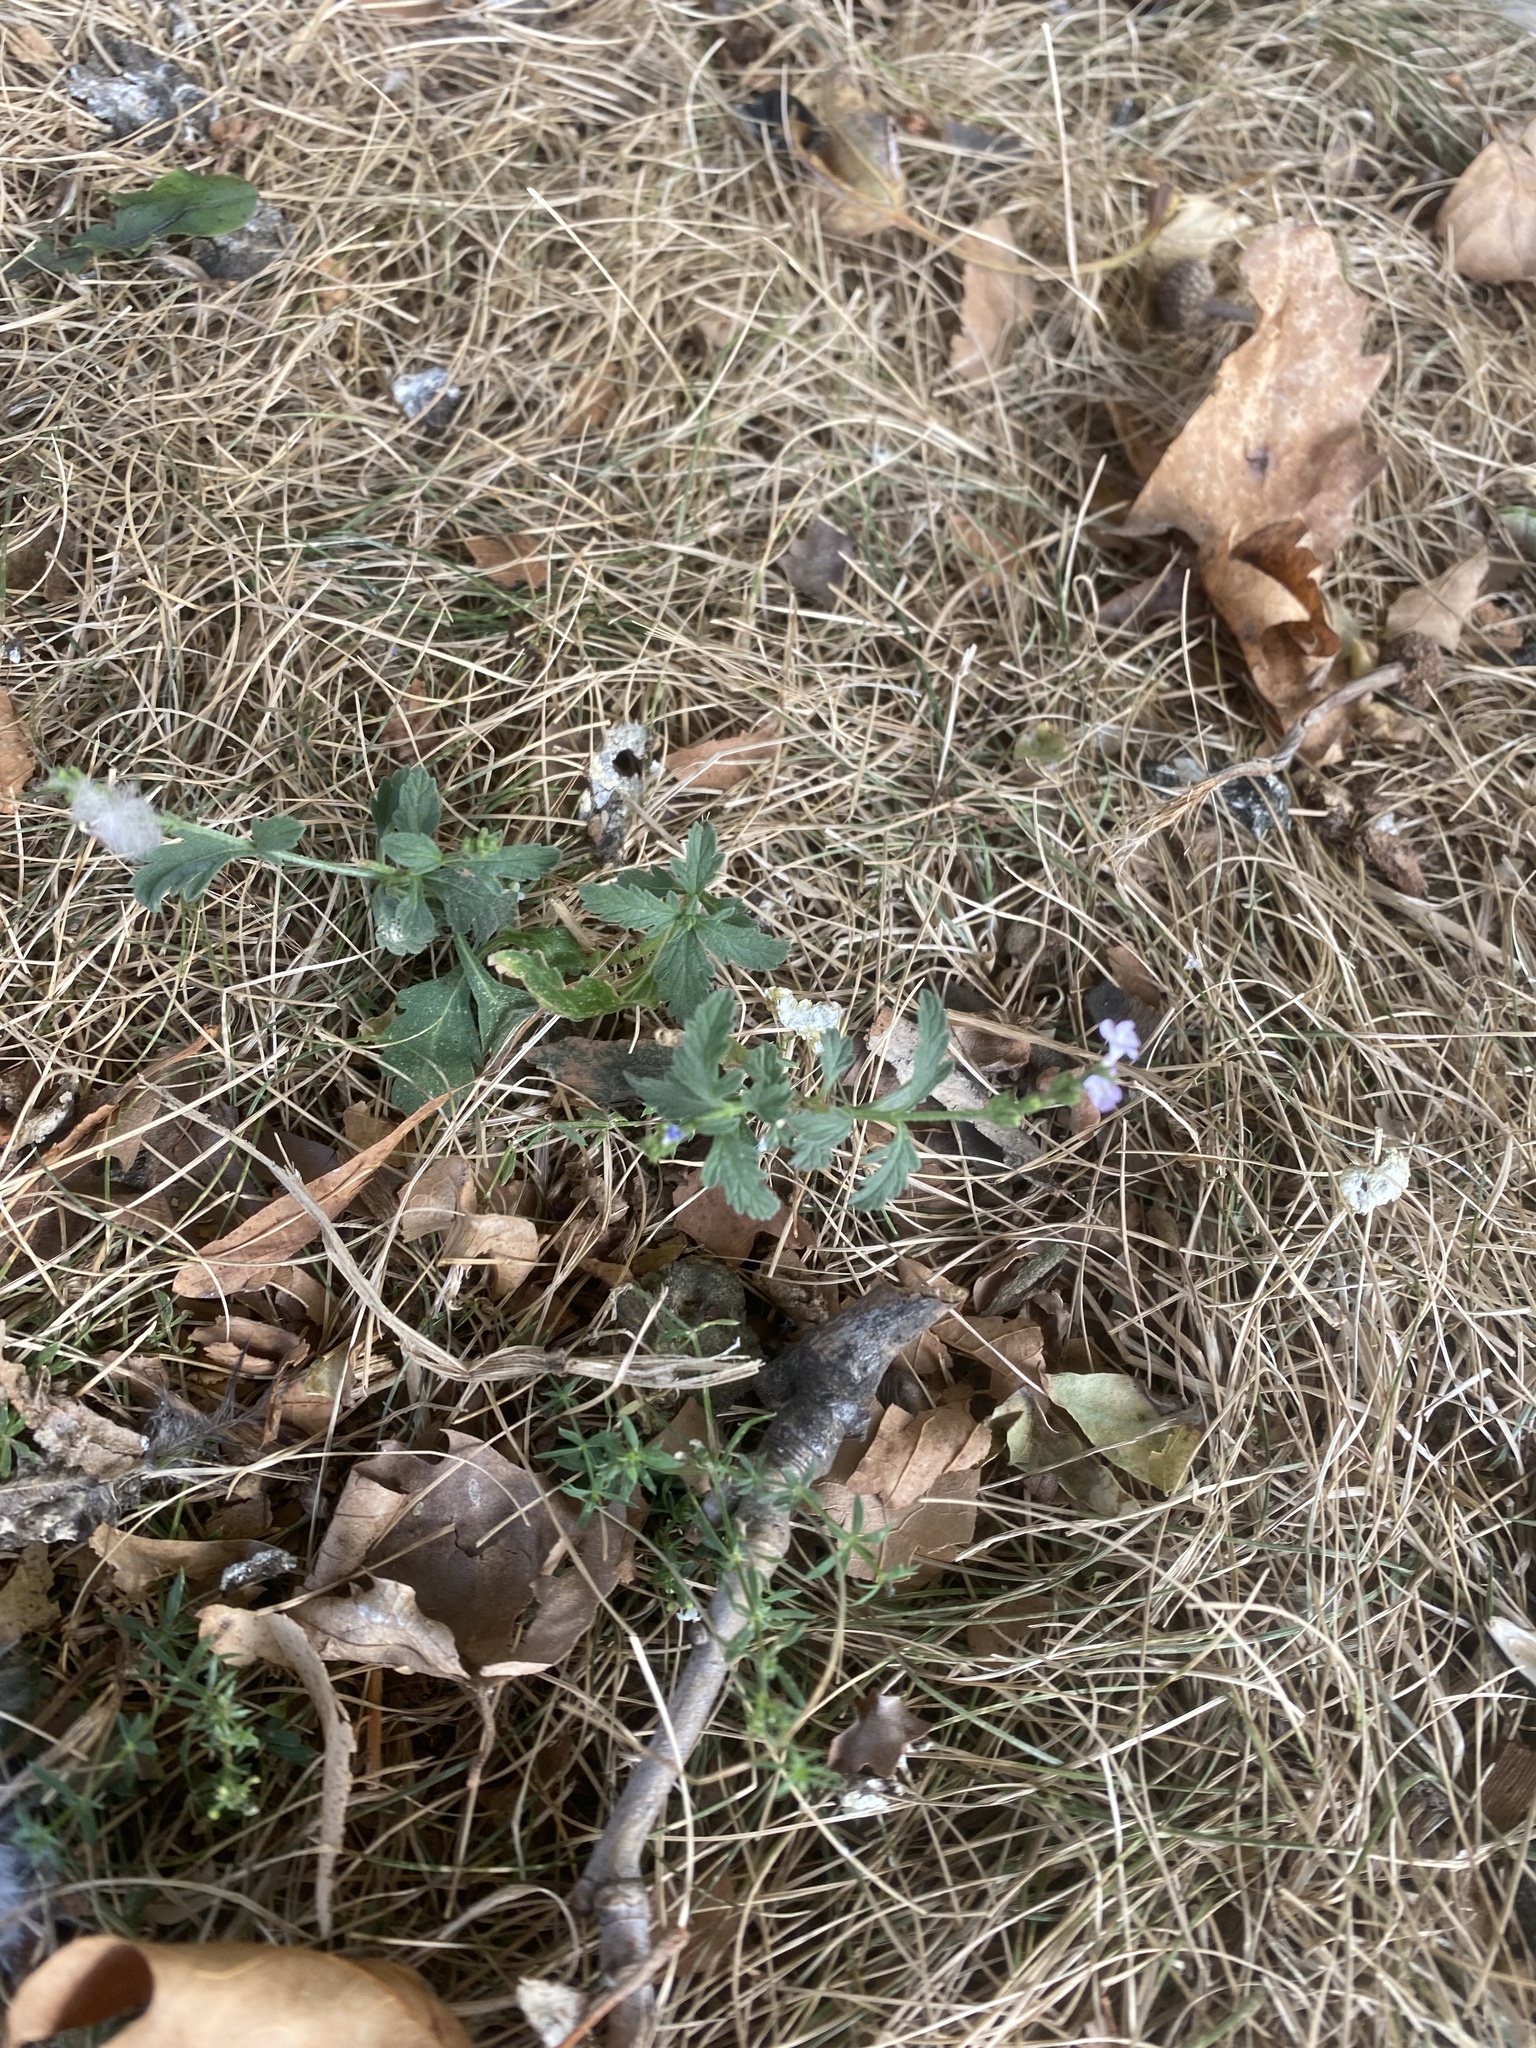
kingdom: Plantae
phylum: Tracheophyta
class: Magnoliopsida
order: Lamiales
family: Verbenaceae
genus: Verbena
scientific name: Verbena officinalis
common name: Vervain
